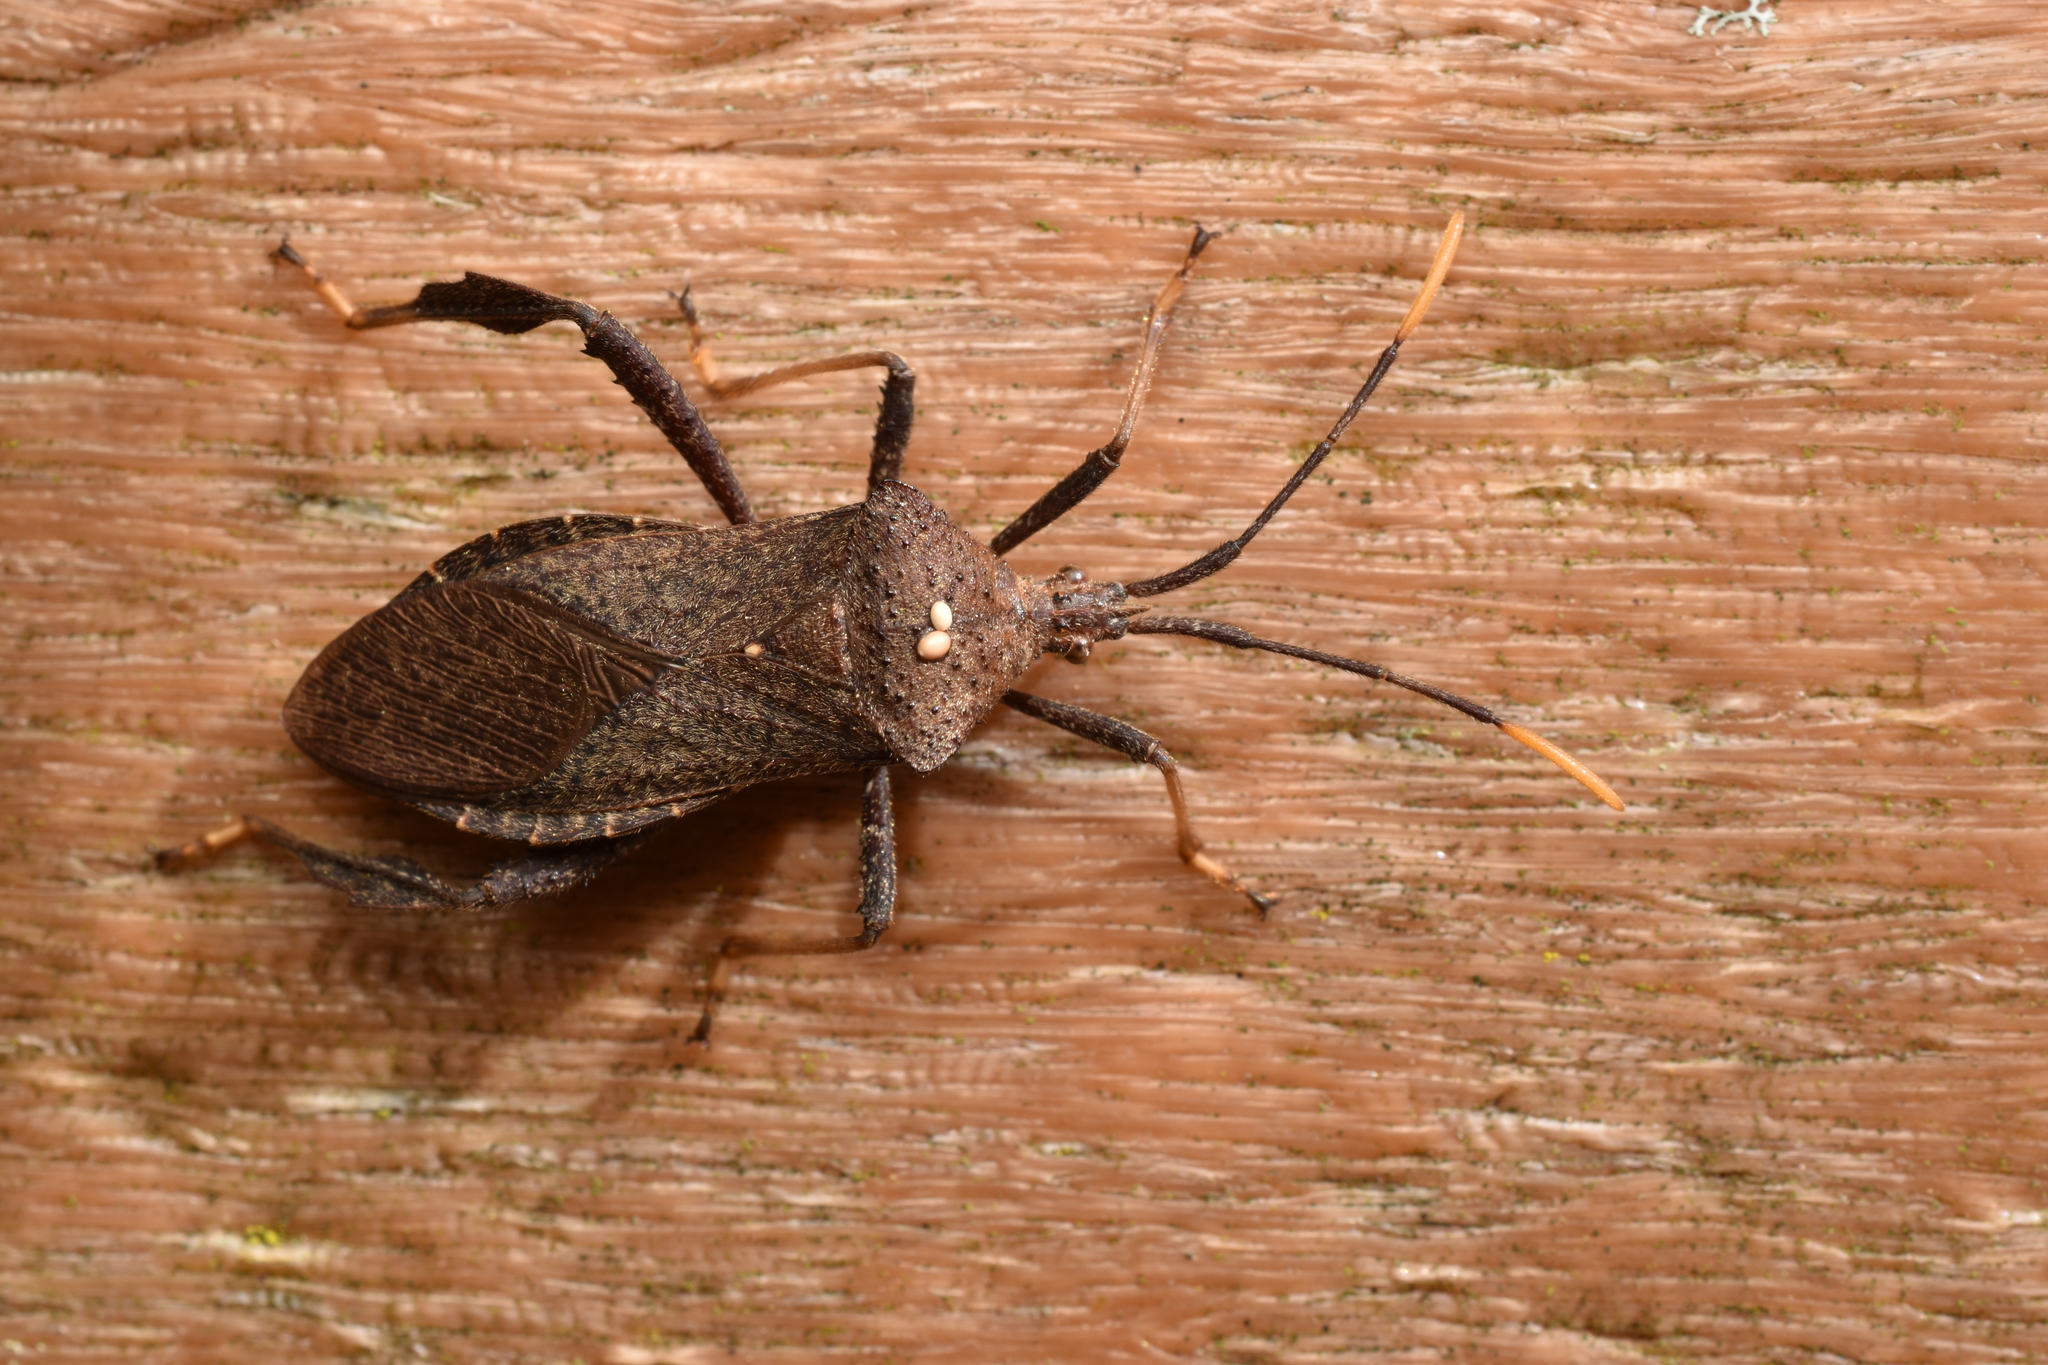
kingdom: Animalia
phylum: Arthropoda
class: Insecta
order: Hemiptera
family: Coreidae
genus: Acanthocephala
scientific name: Acanthocephala terminalis
